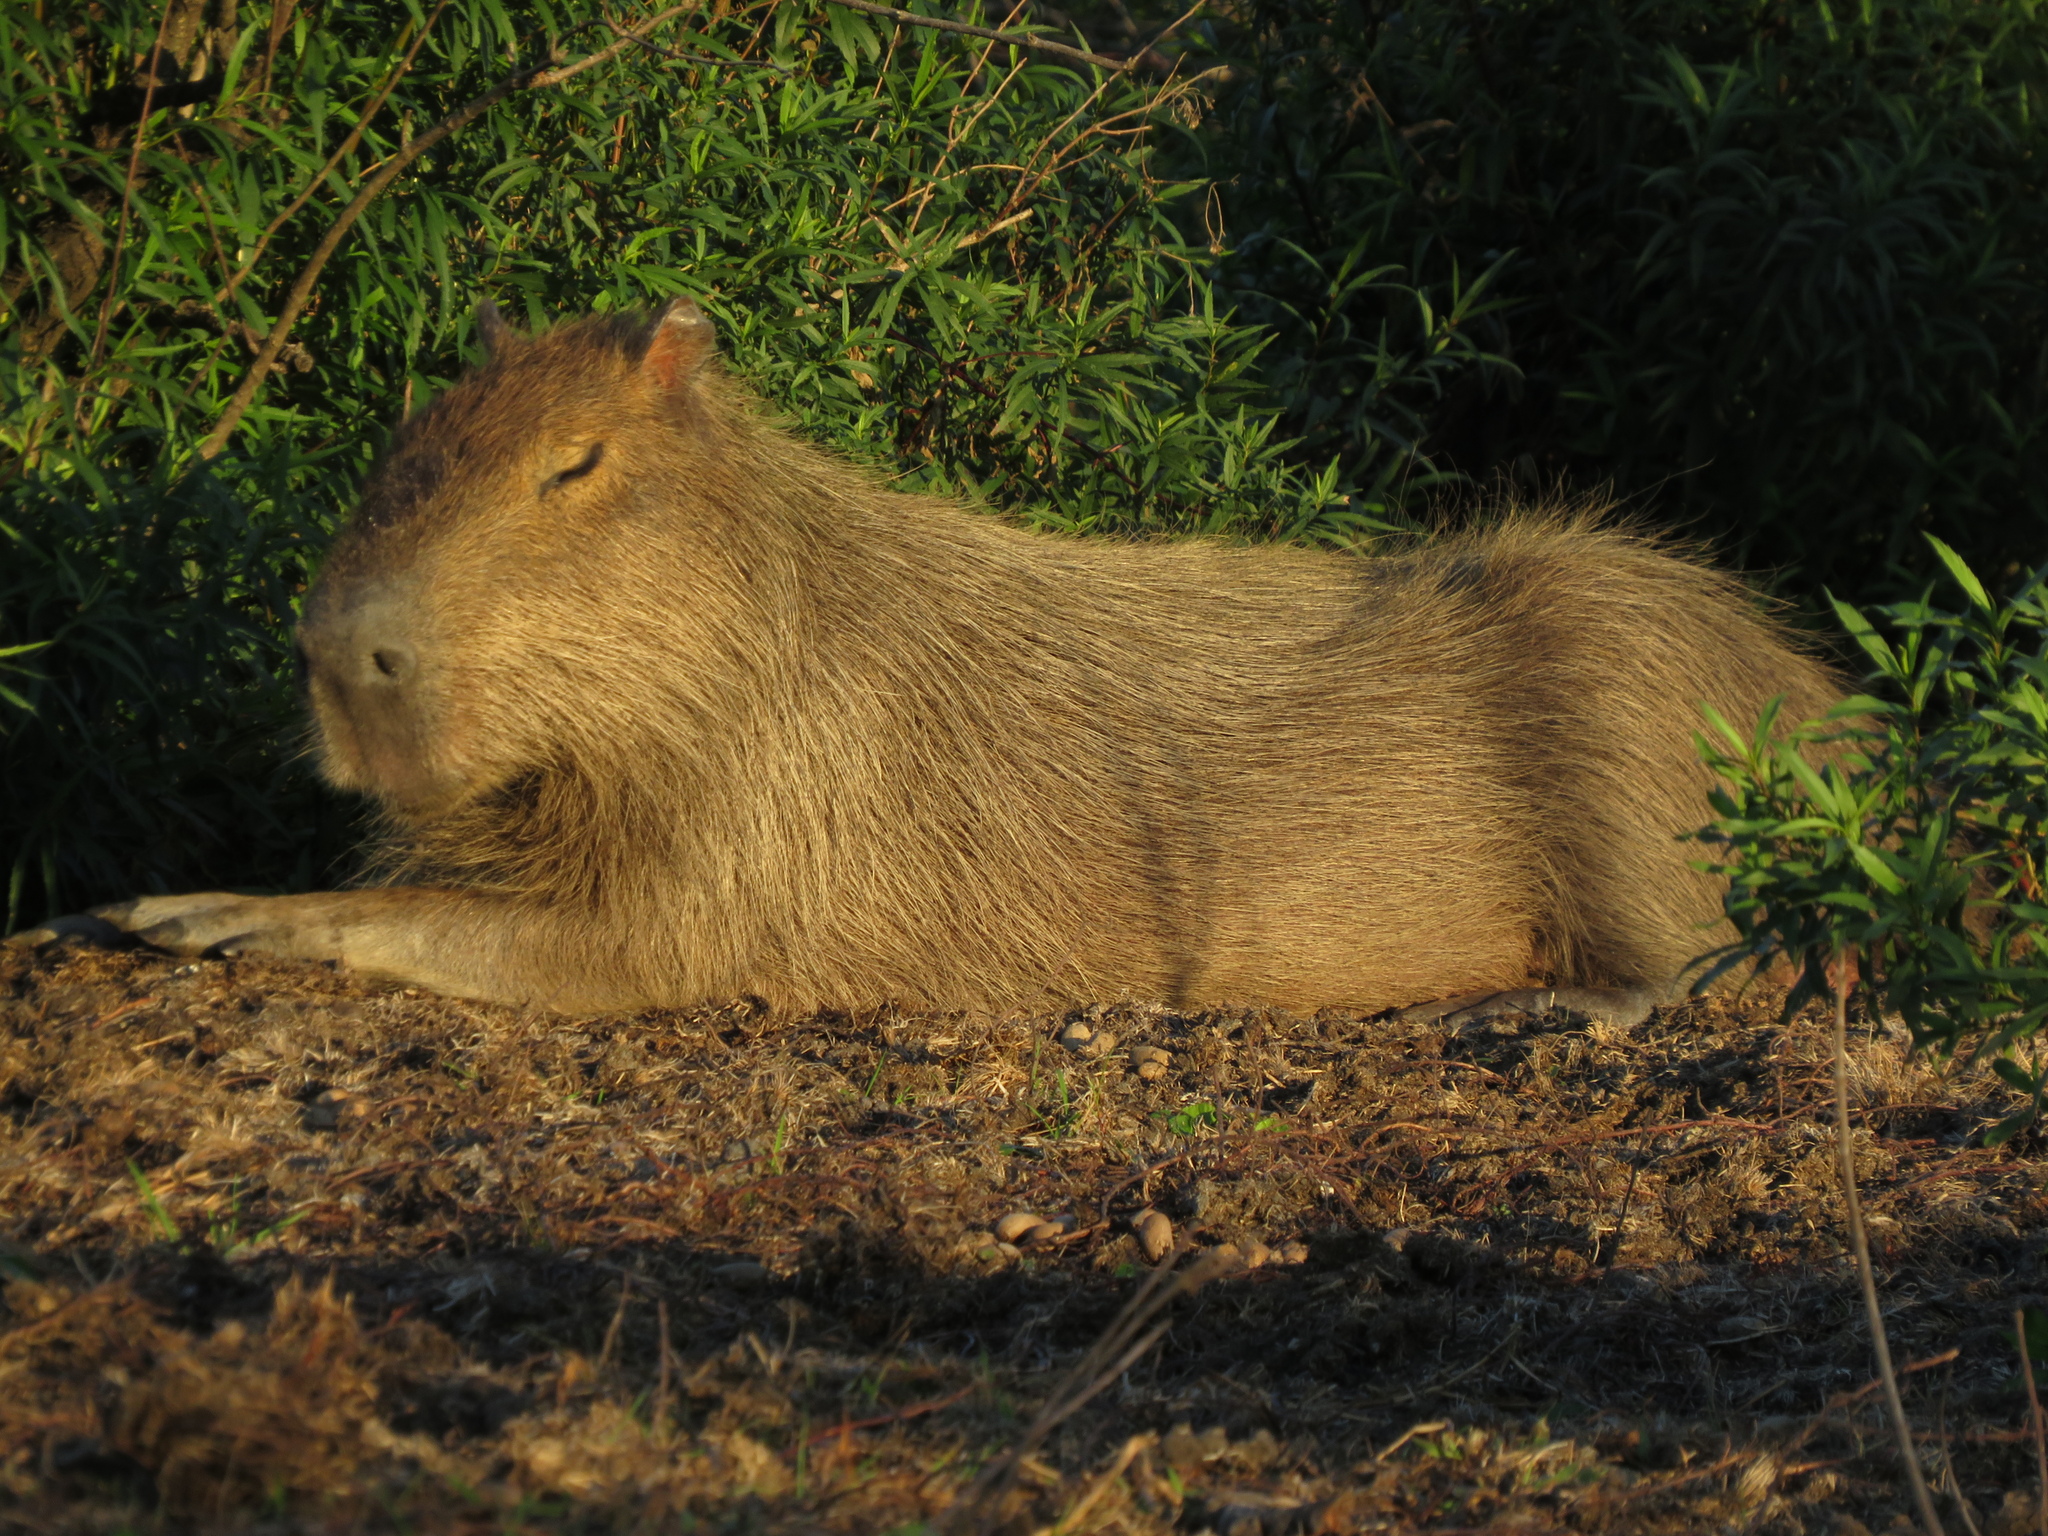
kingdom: Animalia
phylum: Chordata
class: Mammalia
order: Rodentia
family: Caviidae
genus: Hydrochoerus
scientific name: Hydrochoerus hydrochaeris
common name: Capybara
